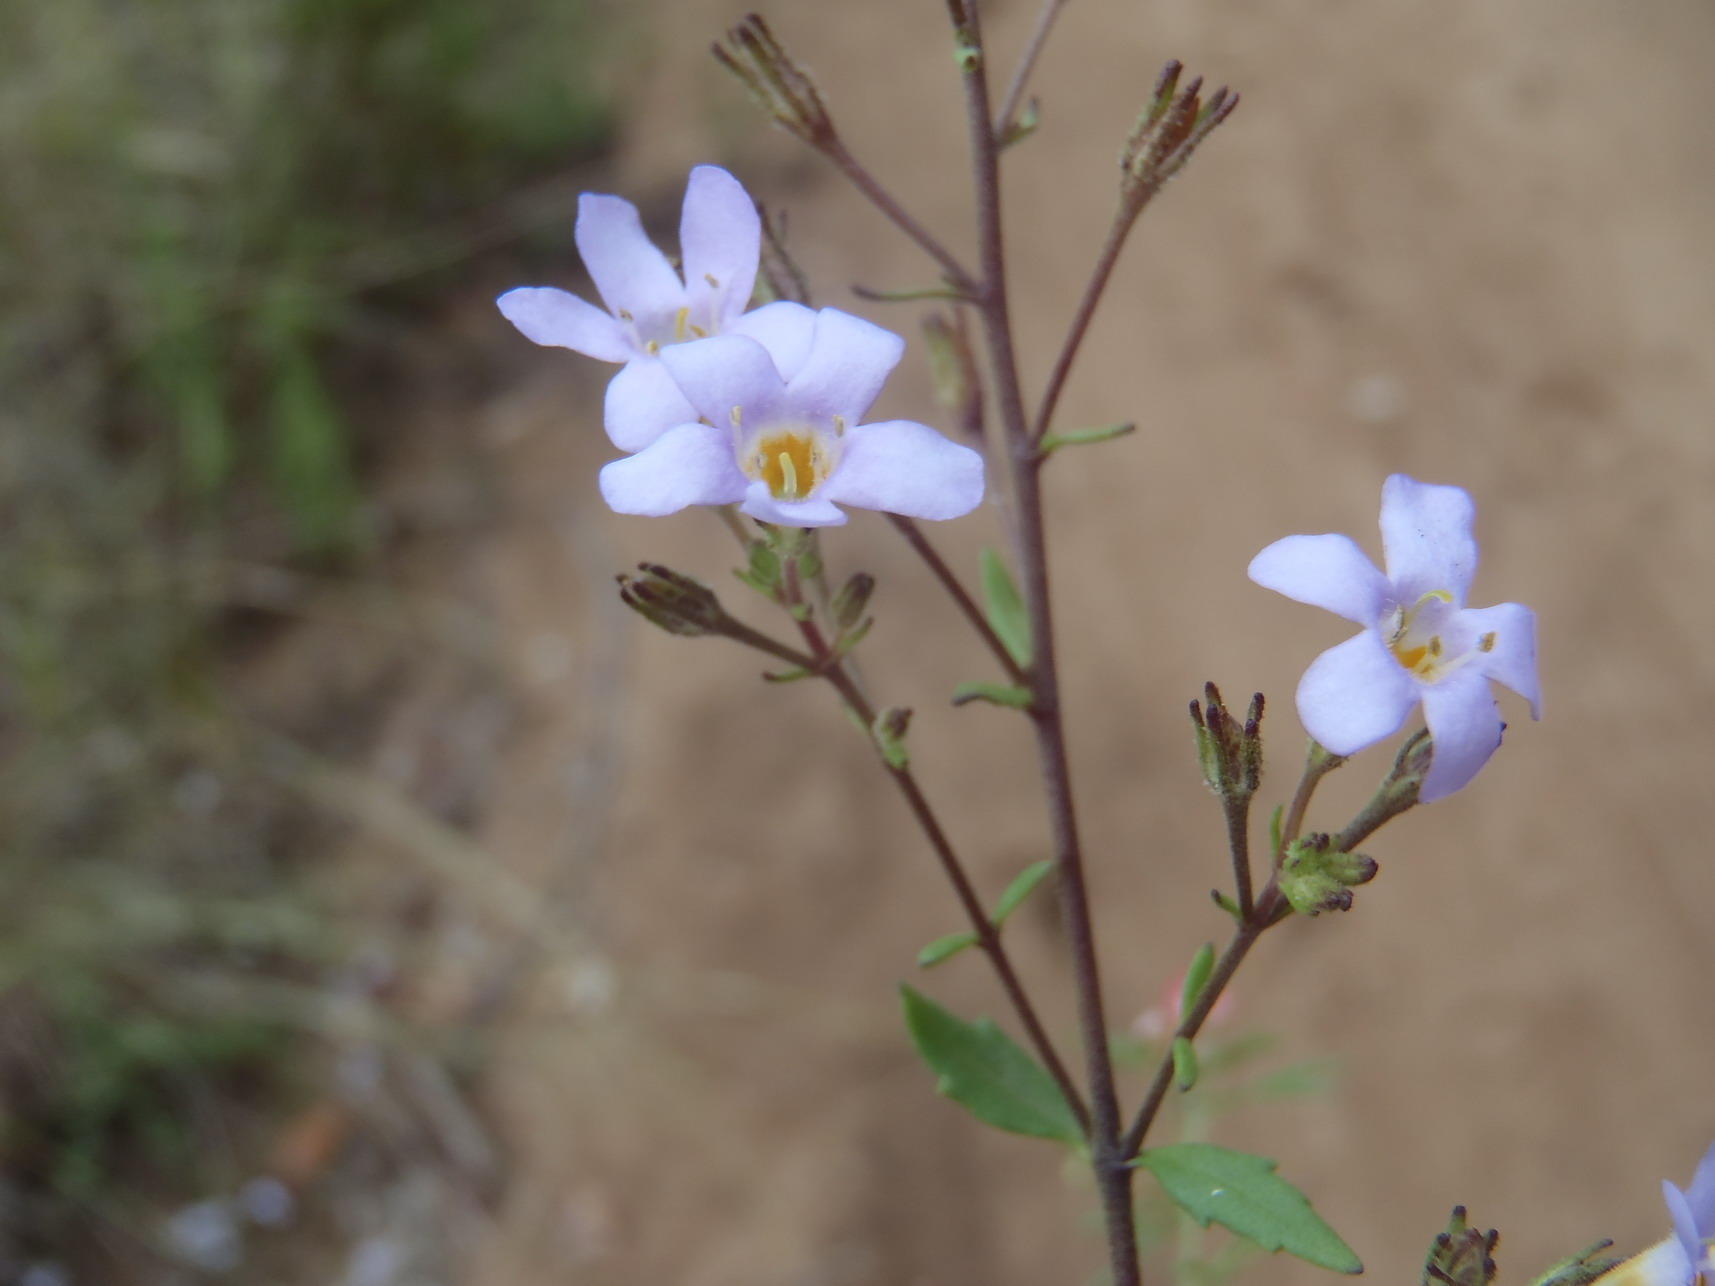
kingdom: Plantae
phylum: Tracheophyta
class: Magnoliopsida
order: Lamiales
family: Scrophulariaceae
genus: Chaenostoma
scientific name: Chaenostoma campanulatum
